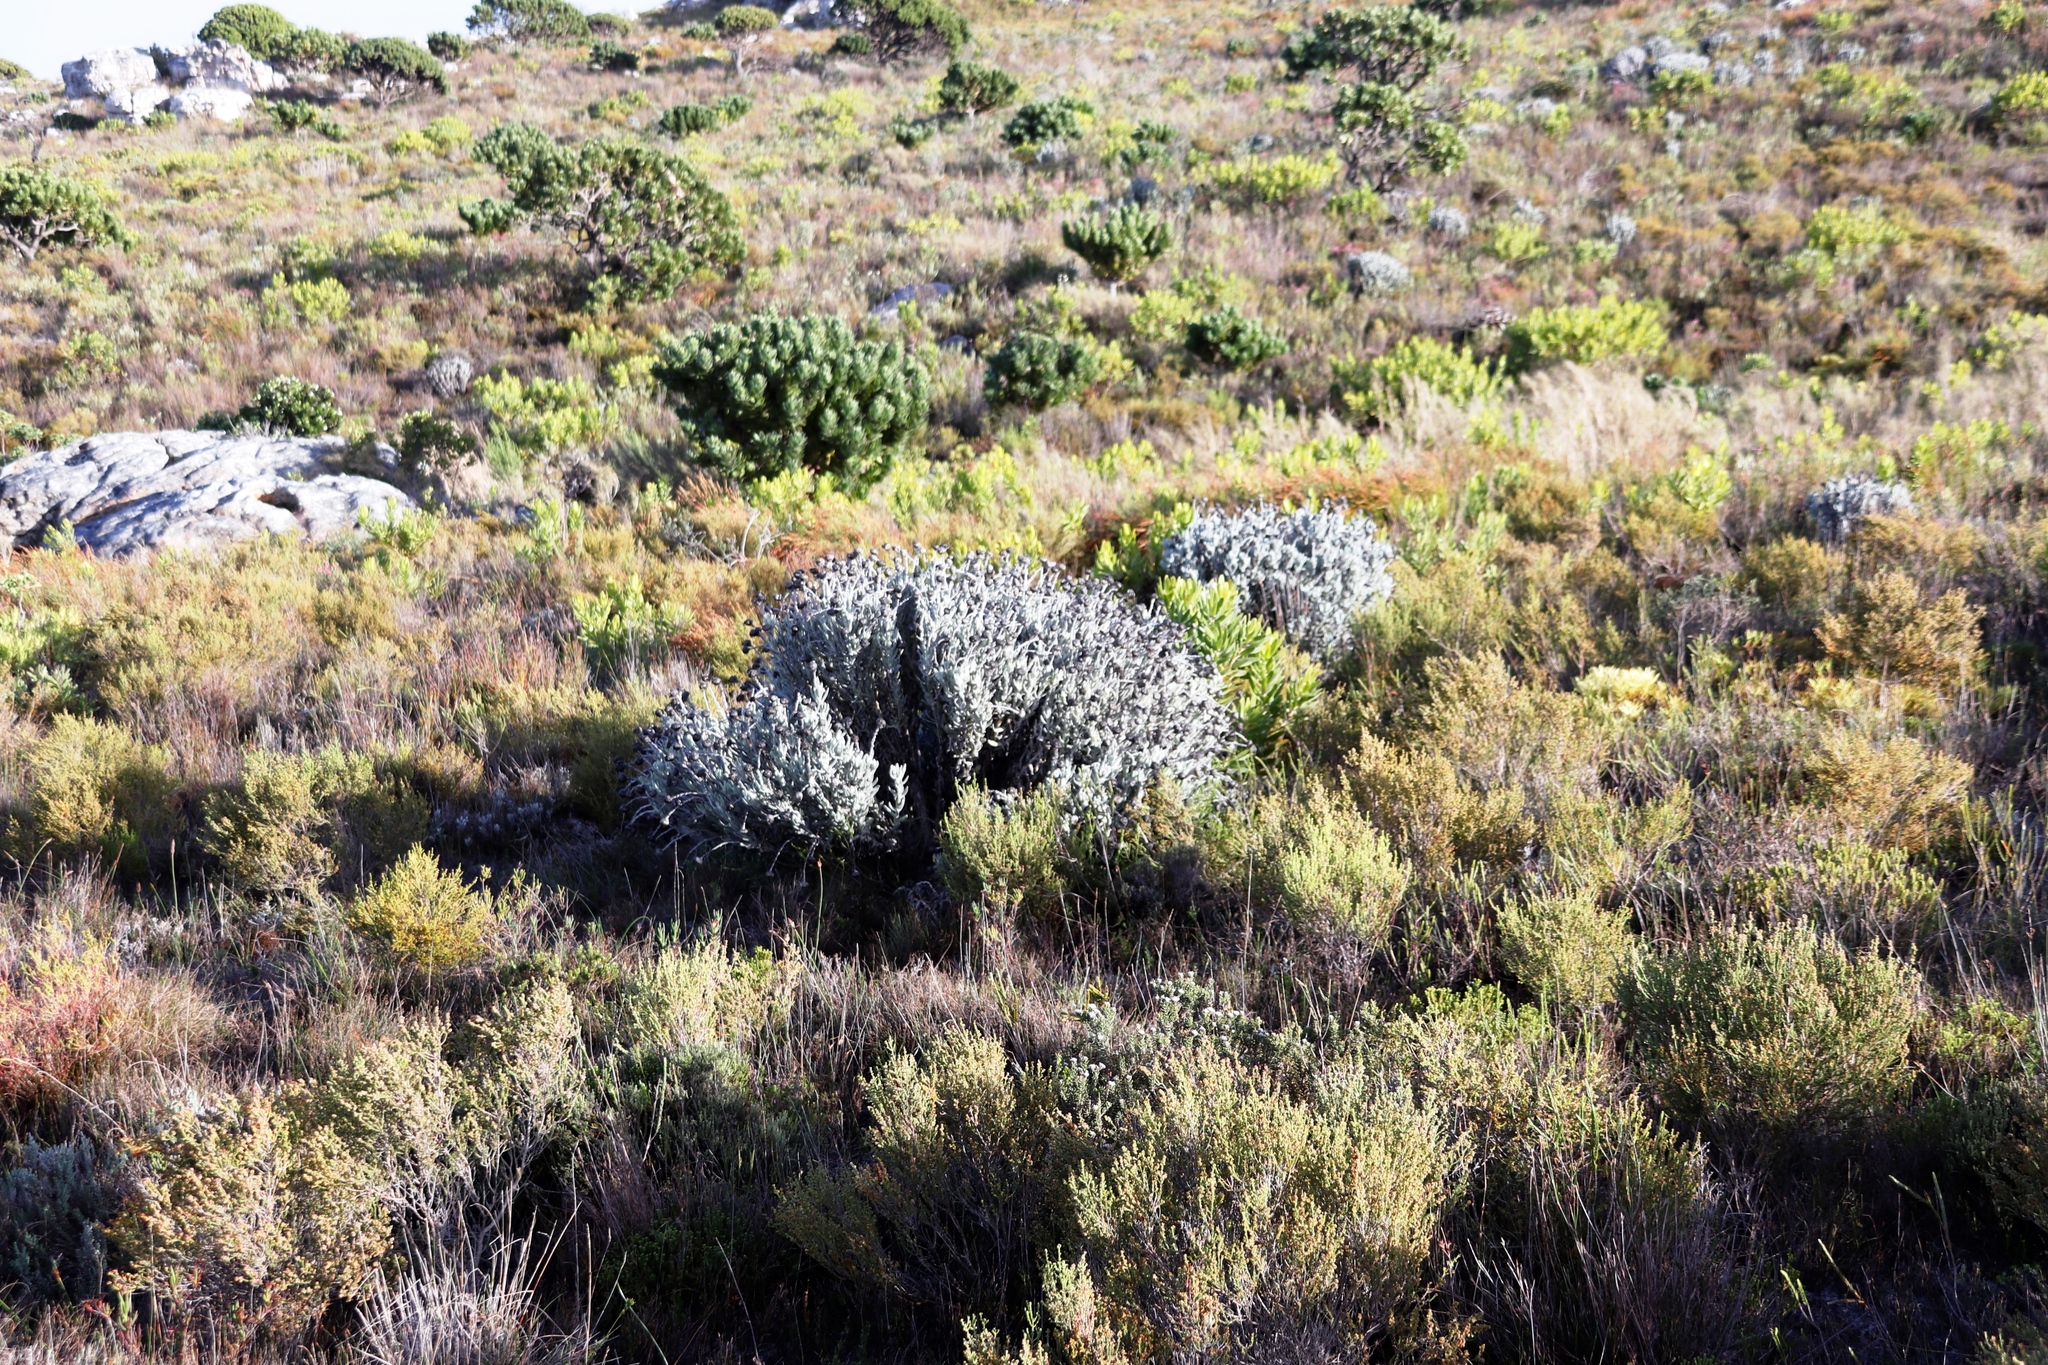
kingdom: Plantae
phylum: Tracheophyta
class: Magnoliopsida
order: Asterales
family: Asteraceae
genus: Syncarpha
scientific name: Syncarpha vestita
